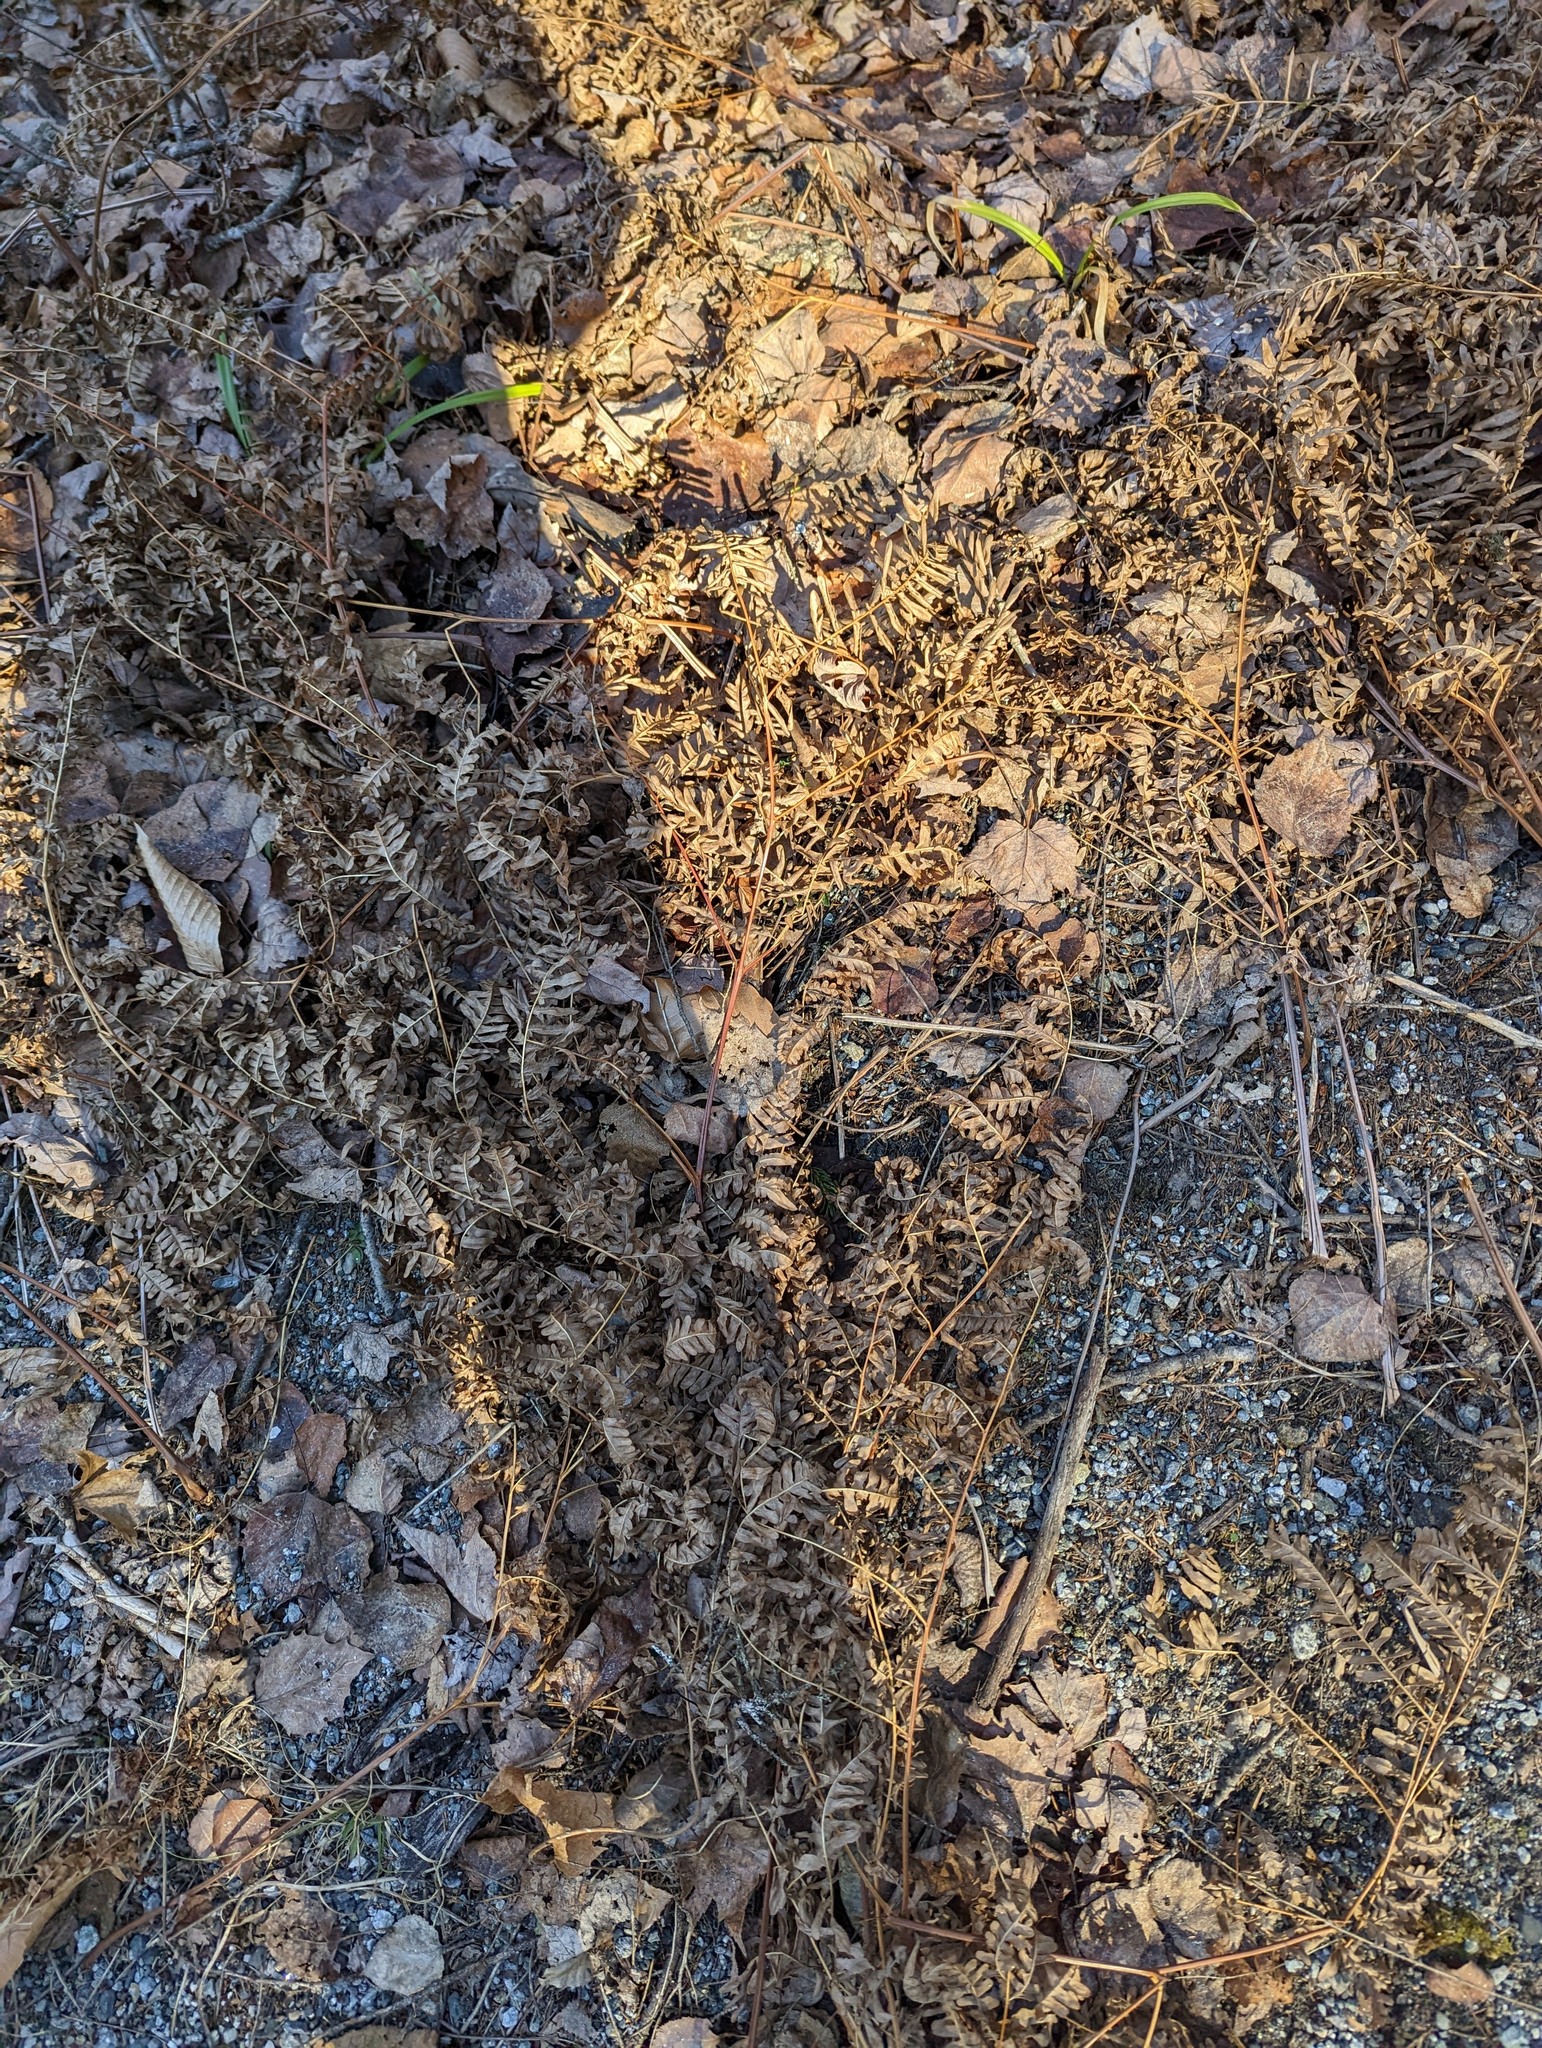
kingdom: Plantae
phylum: Tracheophyta
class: Polypodiopsida
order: Polypodiales
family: Dennstaedtiaceae
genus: Pteridium
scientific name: Pteridium aquilinum
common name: Bracken
